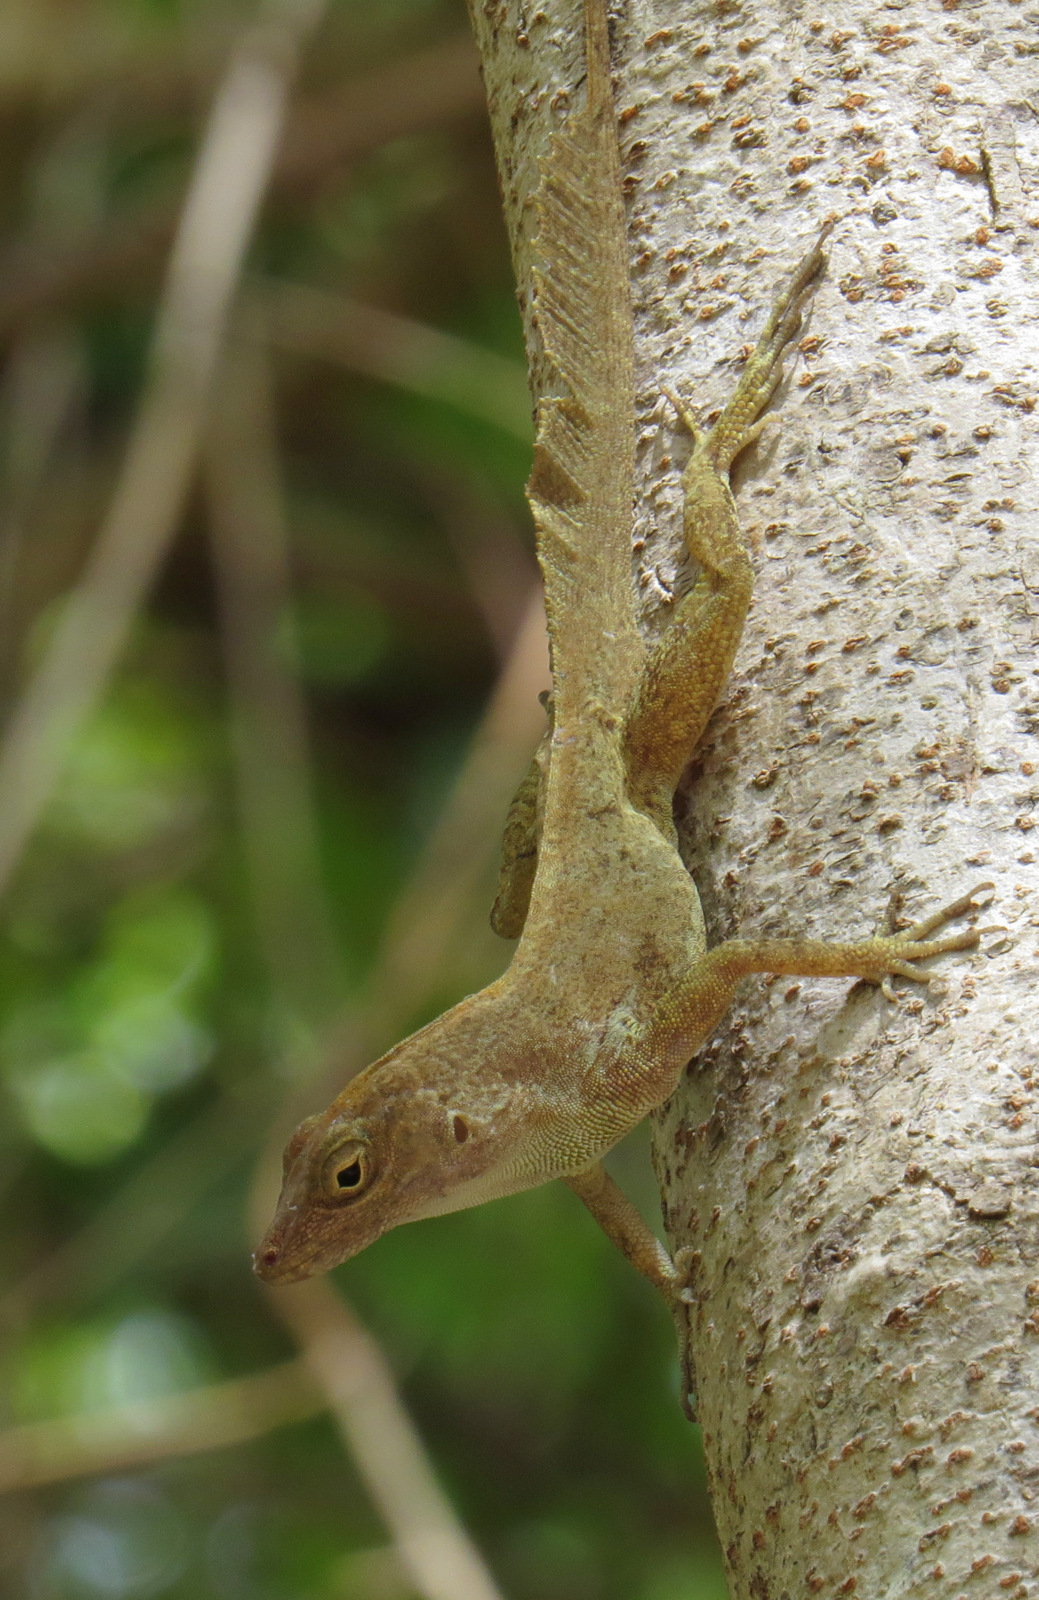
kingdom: Animalia
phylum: Chordata
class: Squamata
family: Dactyloidae
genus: Anolis
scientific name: Anolis cristatellus
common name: Crested anole
